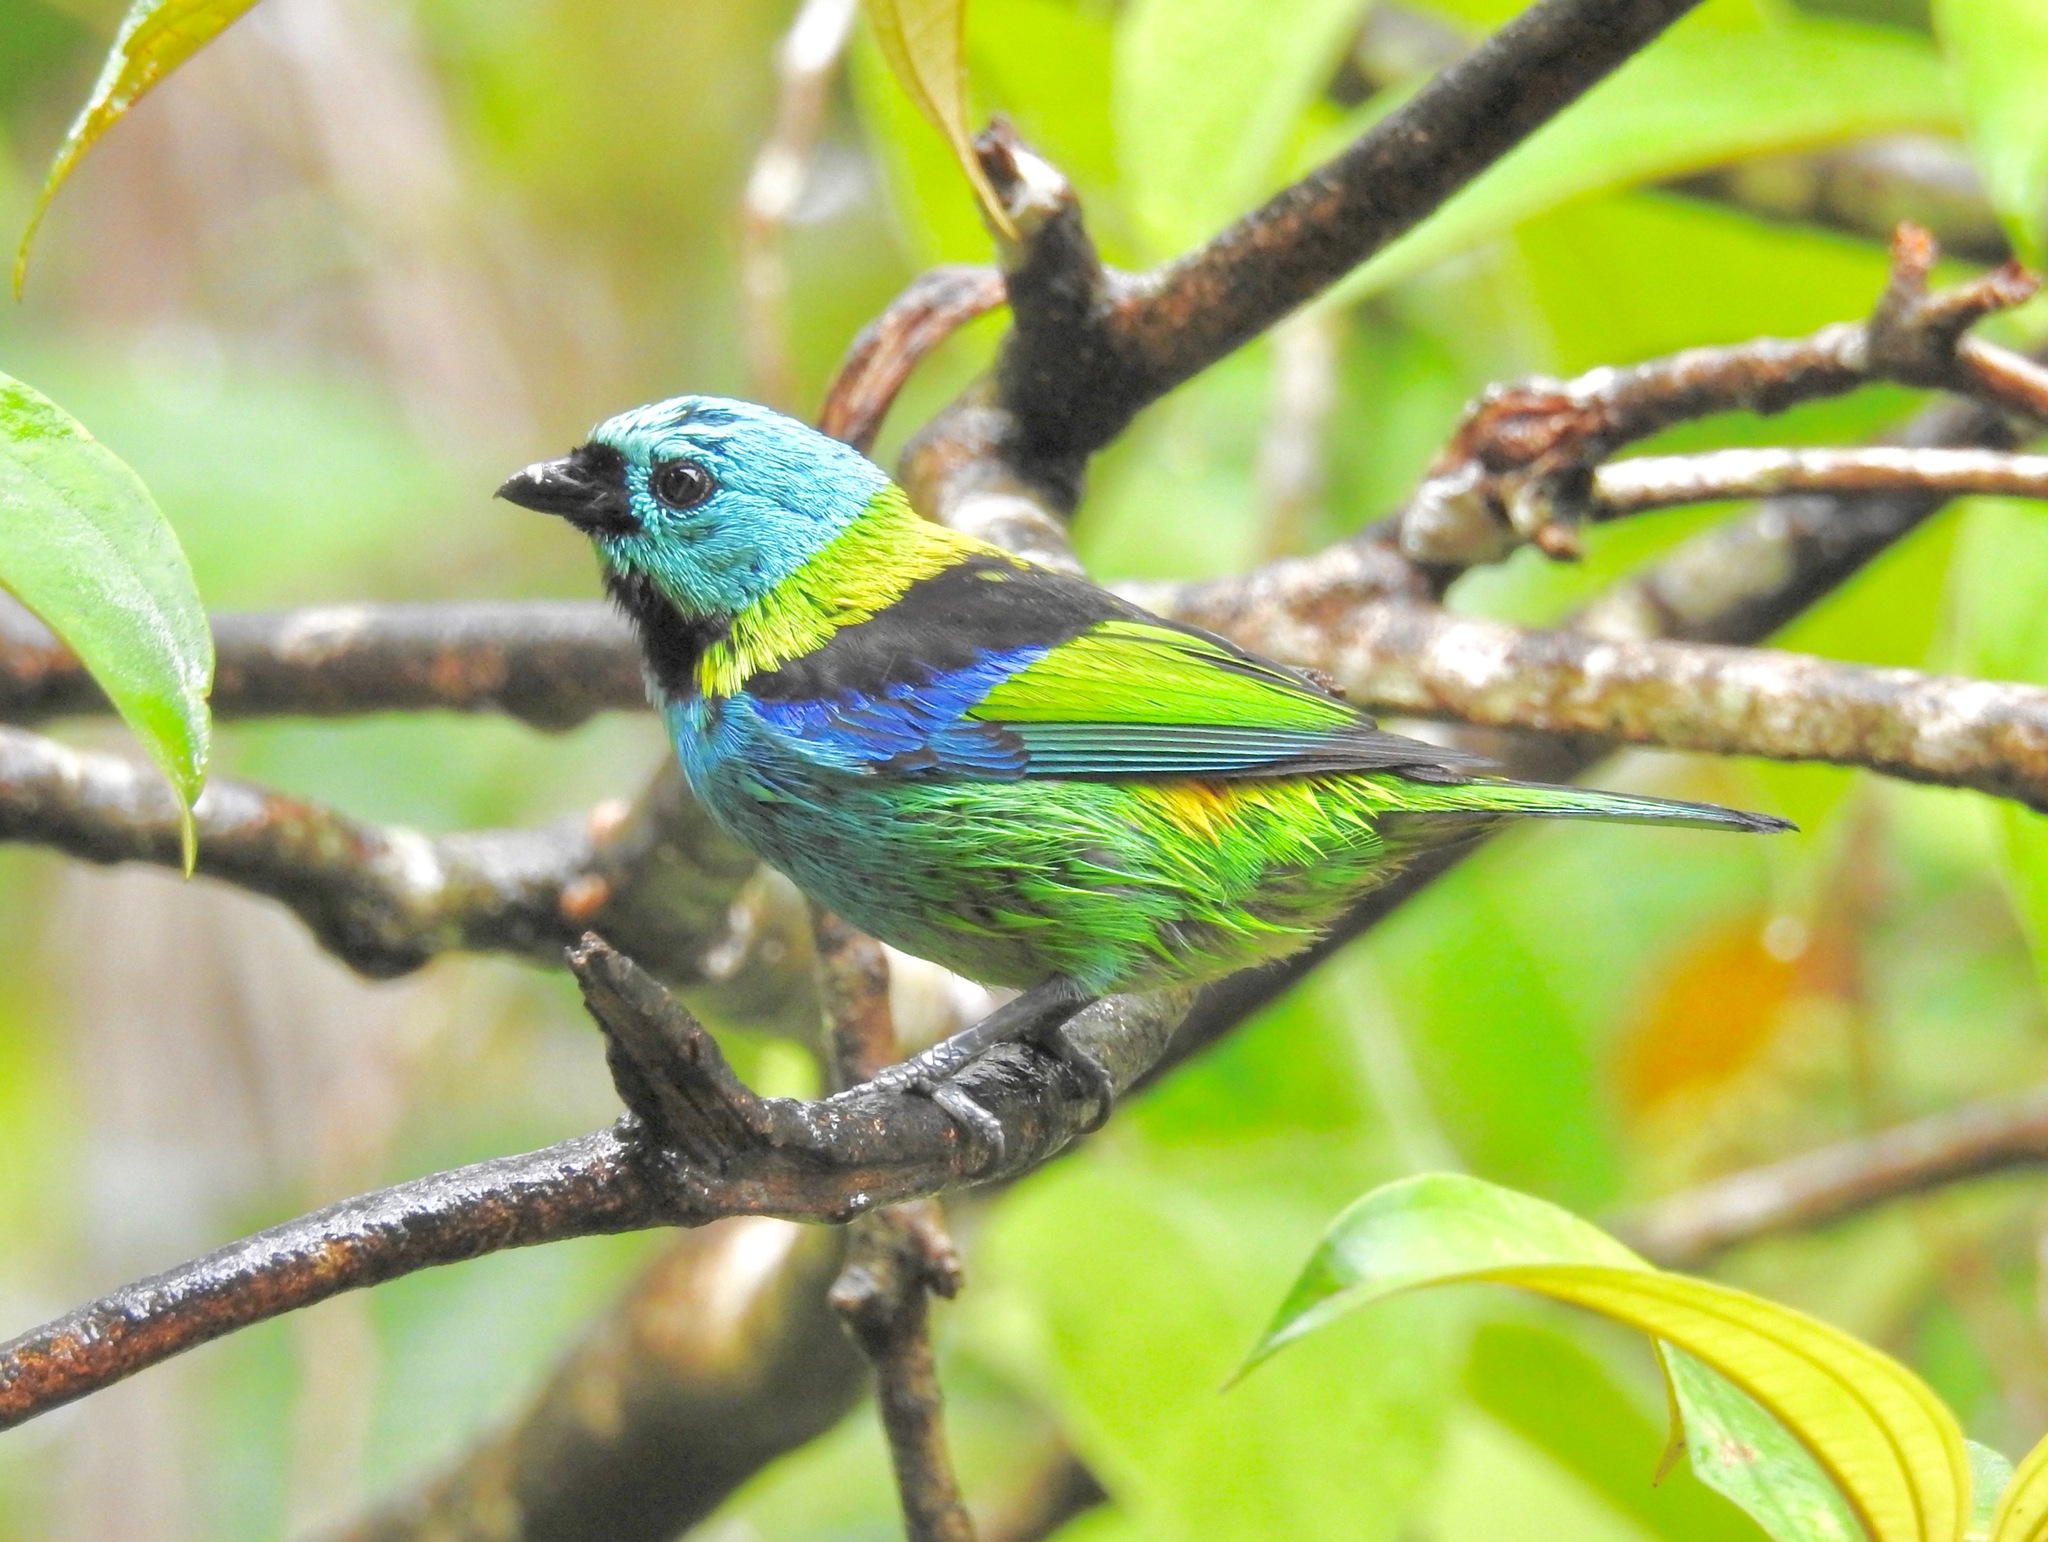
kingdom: Animalia
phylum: Chordata
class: Aves
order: Passeriformes
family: Thraupidae
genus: Tangara
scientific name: Tangara seledon
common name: Green-headed tanager
